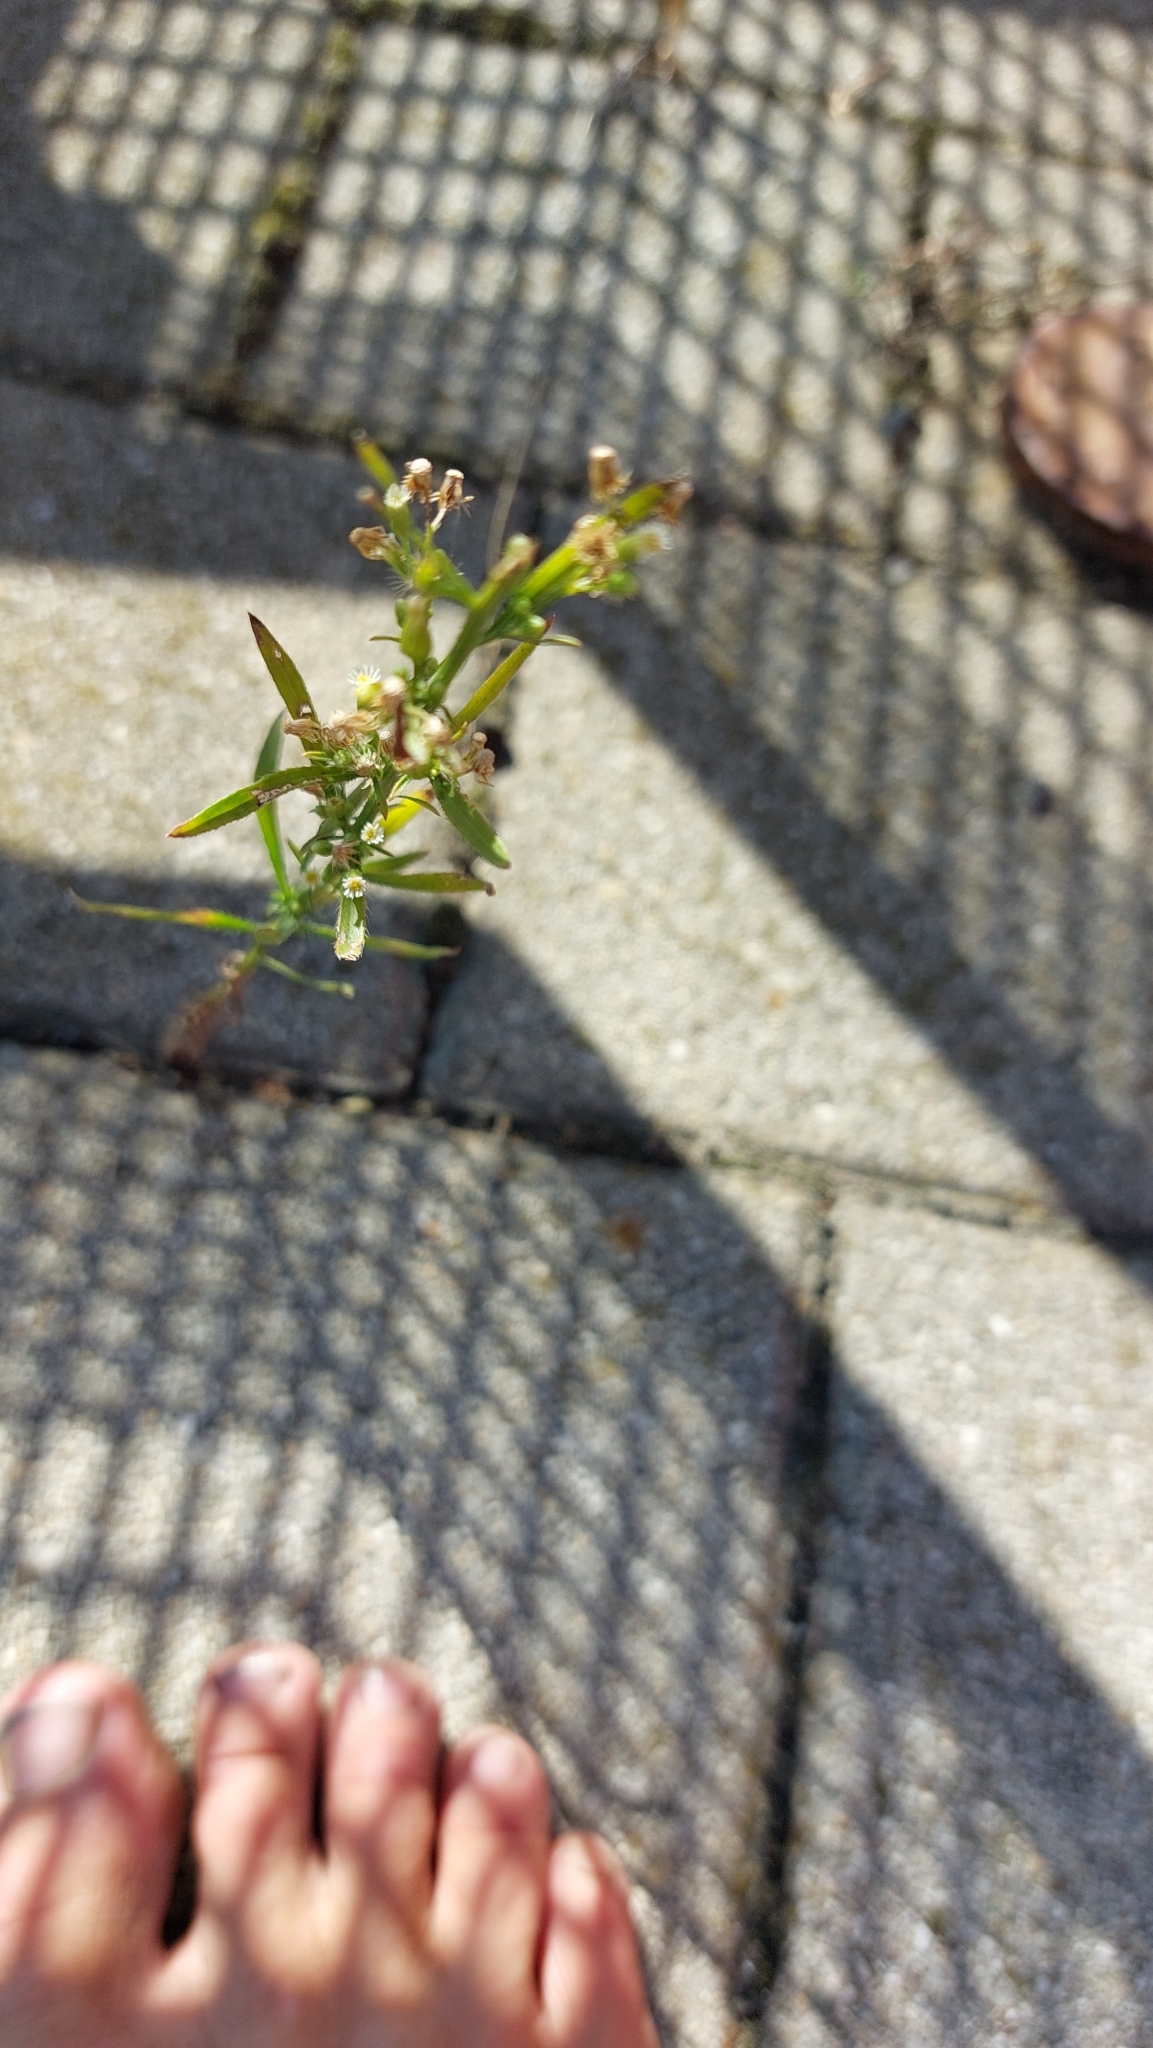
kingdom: Plantae
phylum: Tracheophyta
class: Magnoliopsida
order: Asterales
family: Asteraceae
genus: Erigeron
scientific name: Erigeron canadensis
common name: Canadian fleabane
